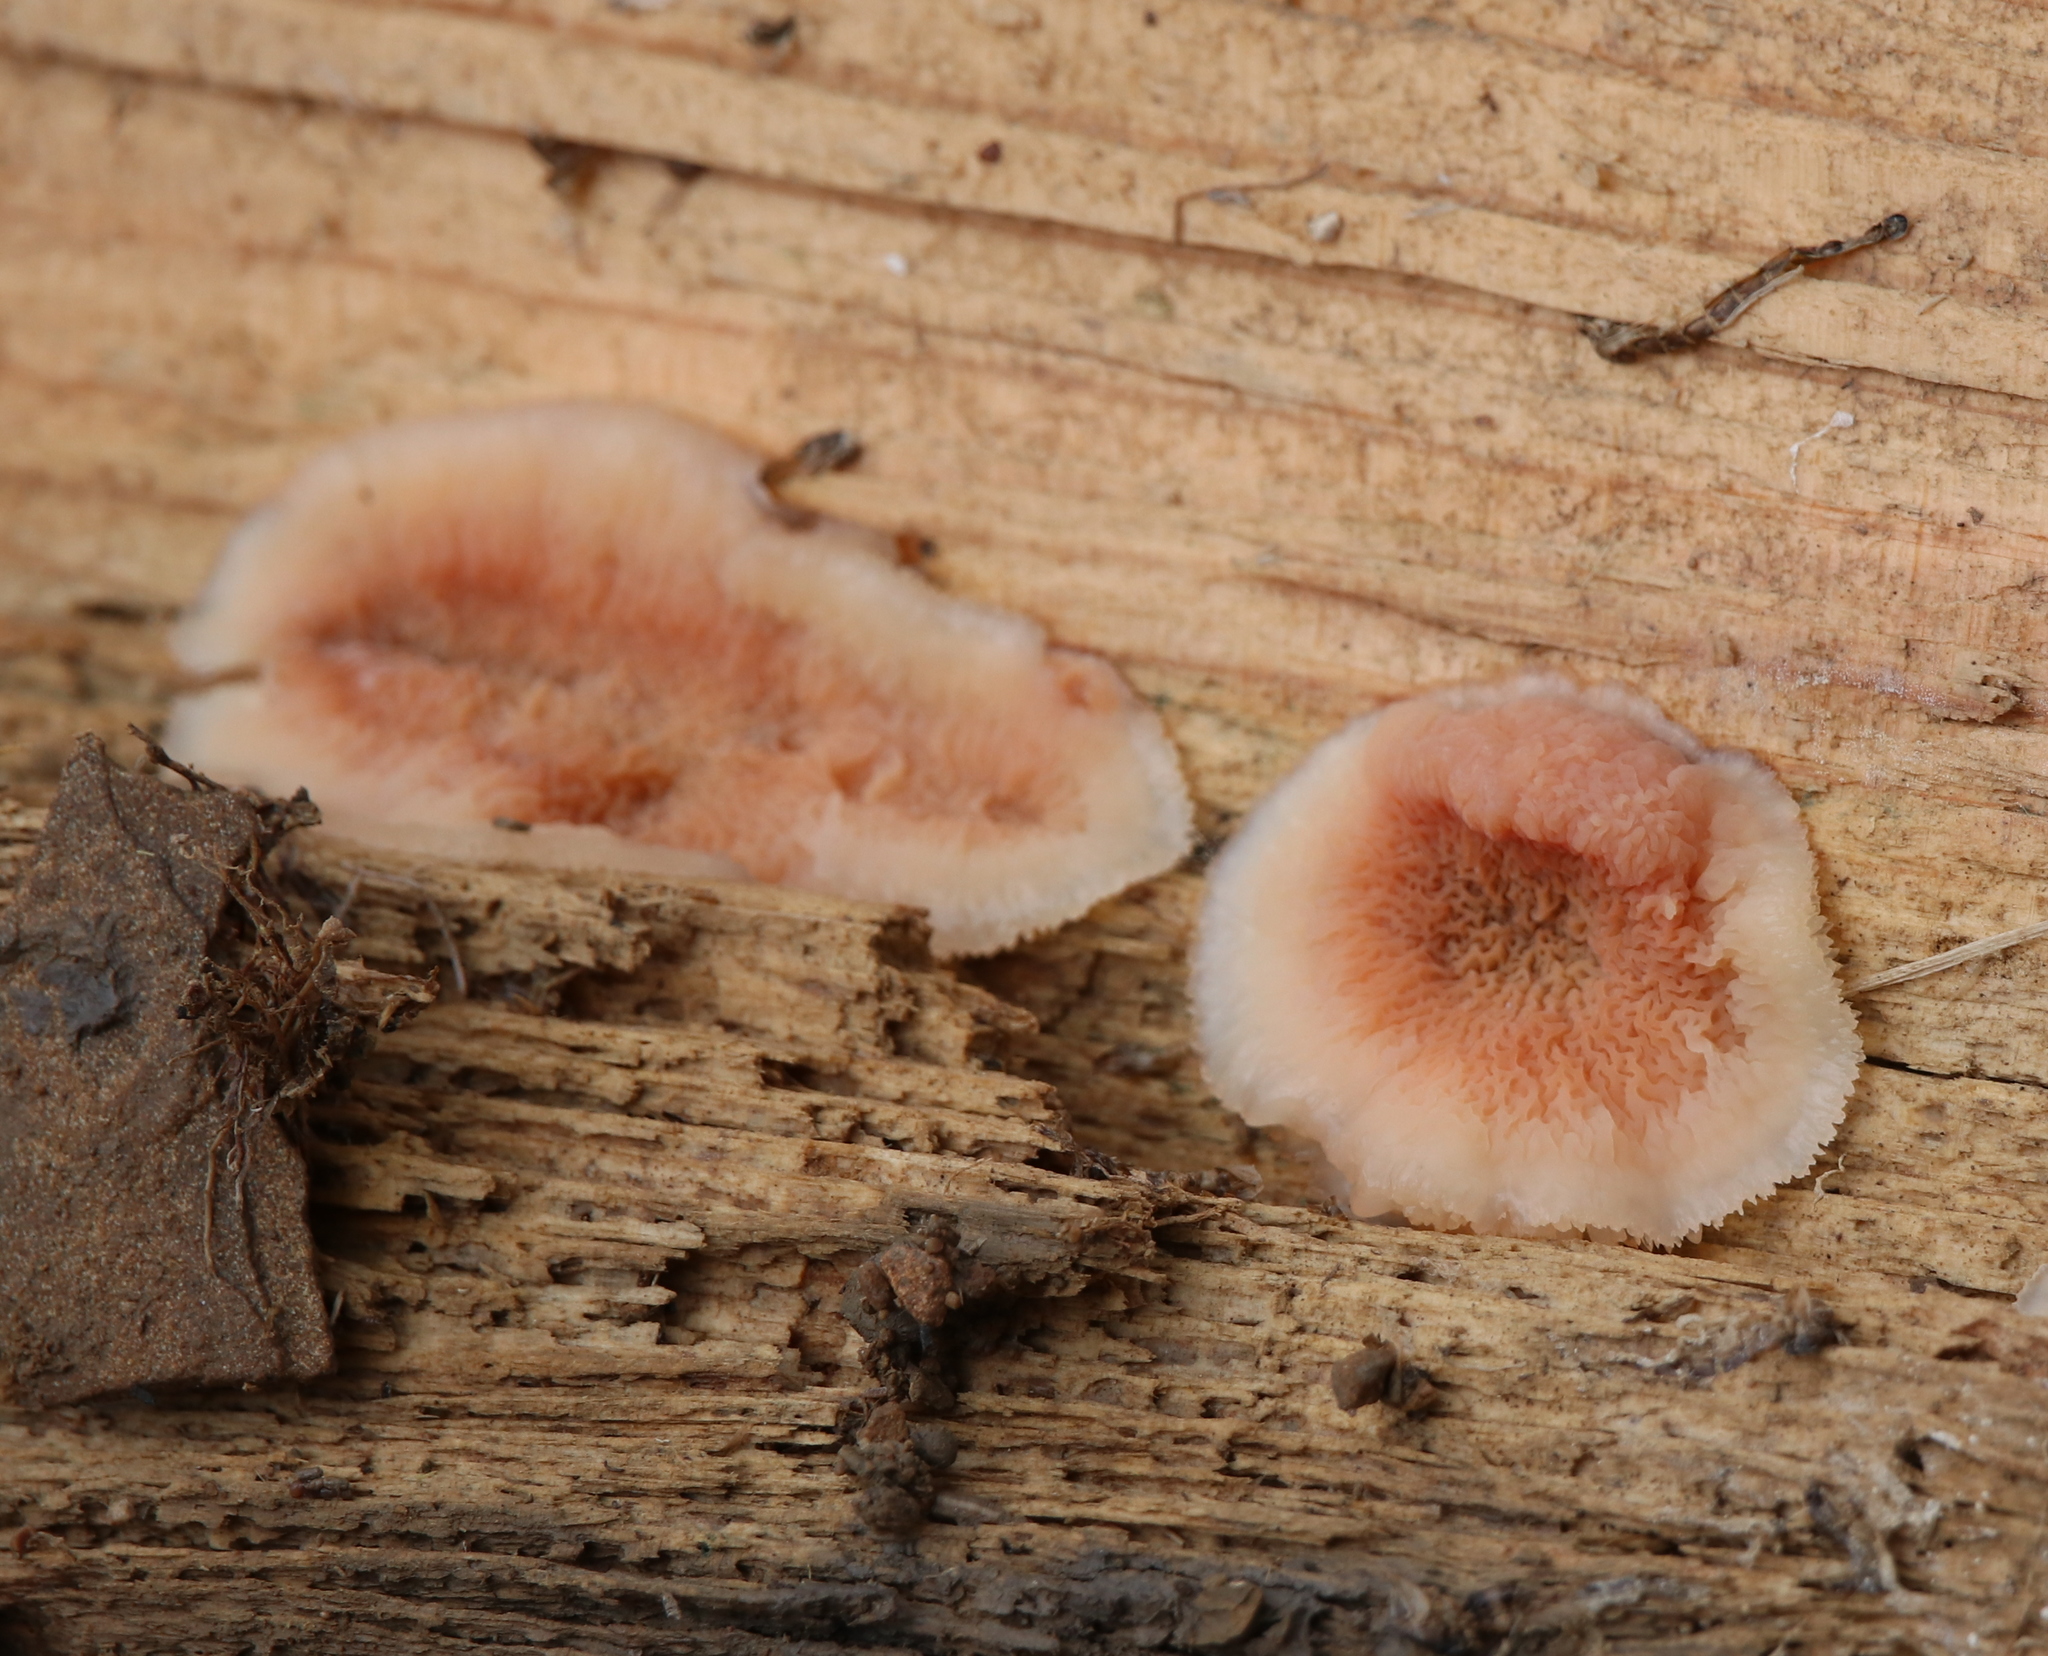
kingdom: Fungi
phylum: Basidiomycota
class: Agaricomycetes
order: Polyporales
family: Meruliaceae
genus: Phlebia
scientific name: Phlebia tremellosa
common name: Jelly rot
